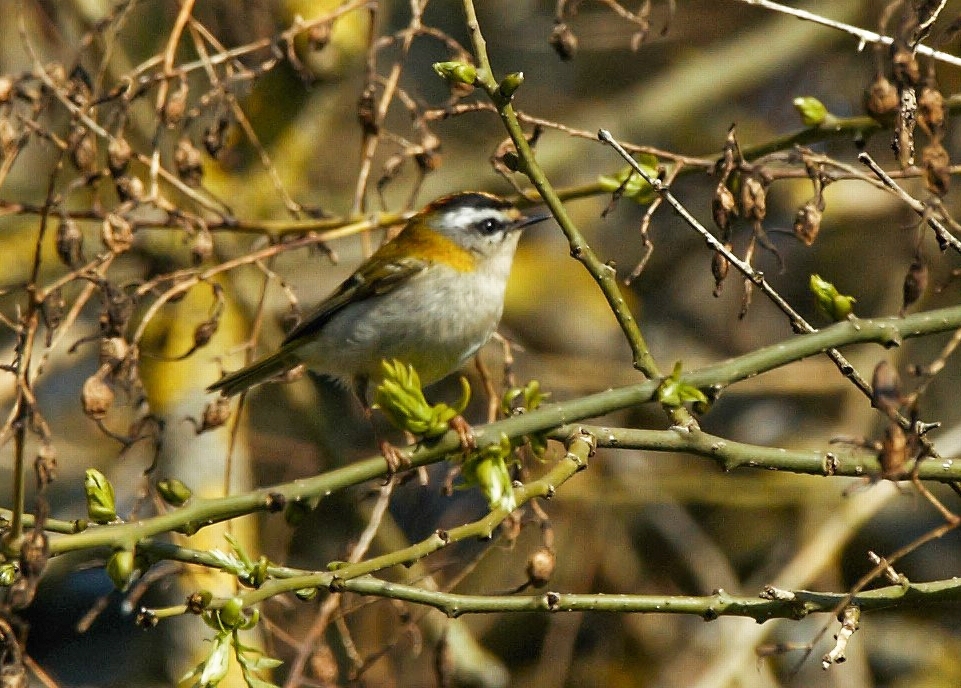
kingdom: Animalia
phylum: Chordata
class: Aves
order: Passeriformes
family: Regulidae
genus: Regulus
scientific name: Regulus ignicapilla
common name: Firecrest
